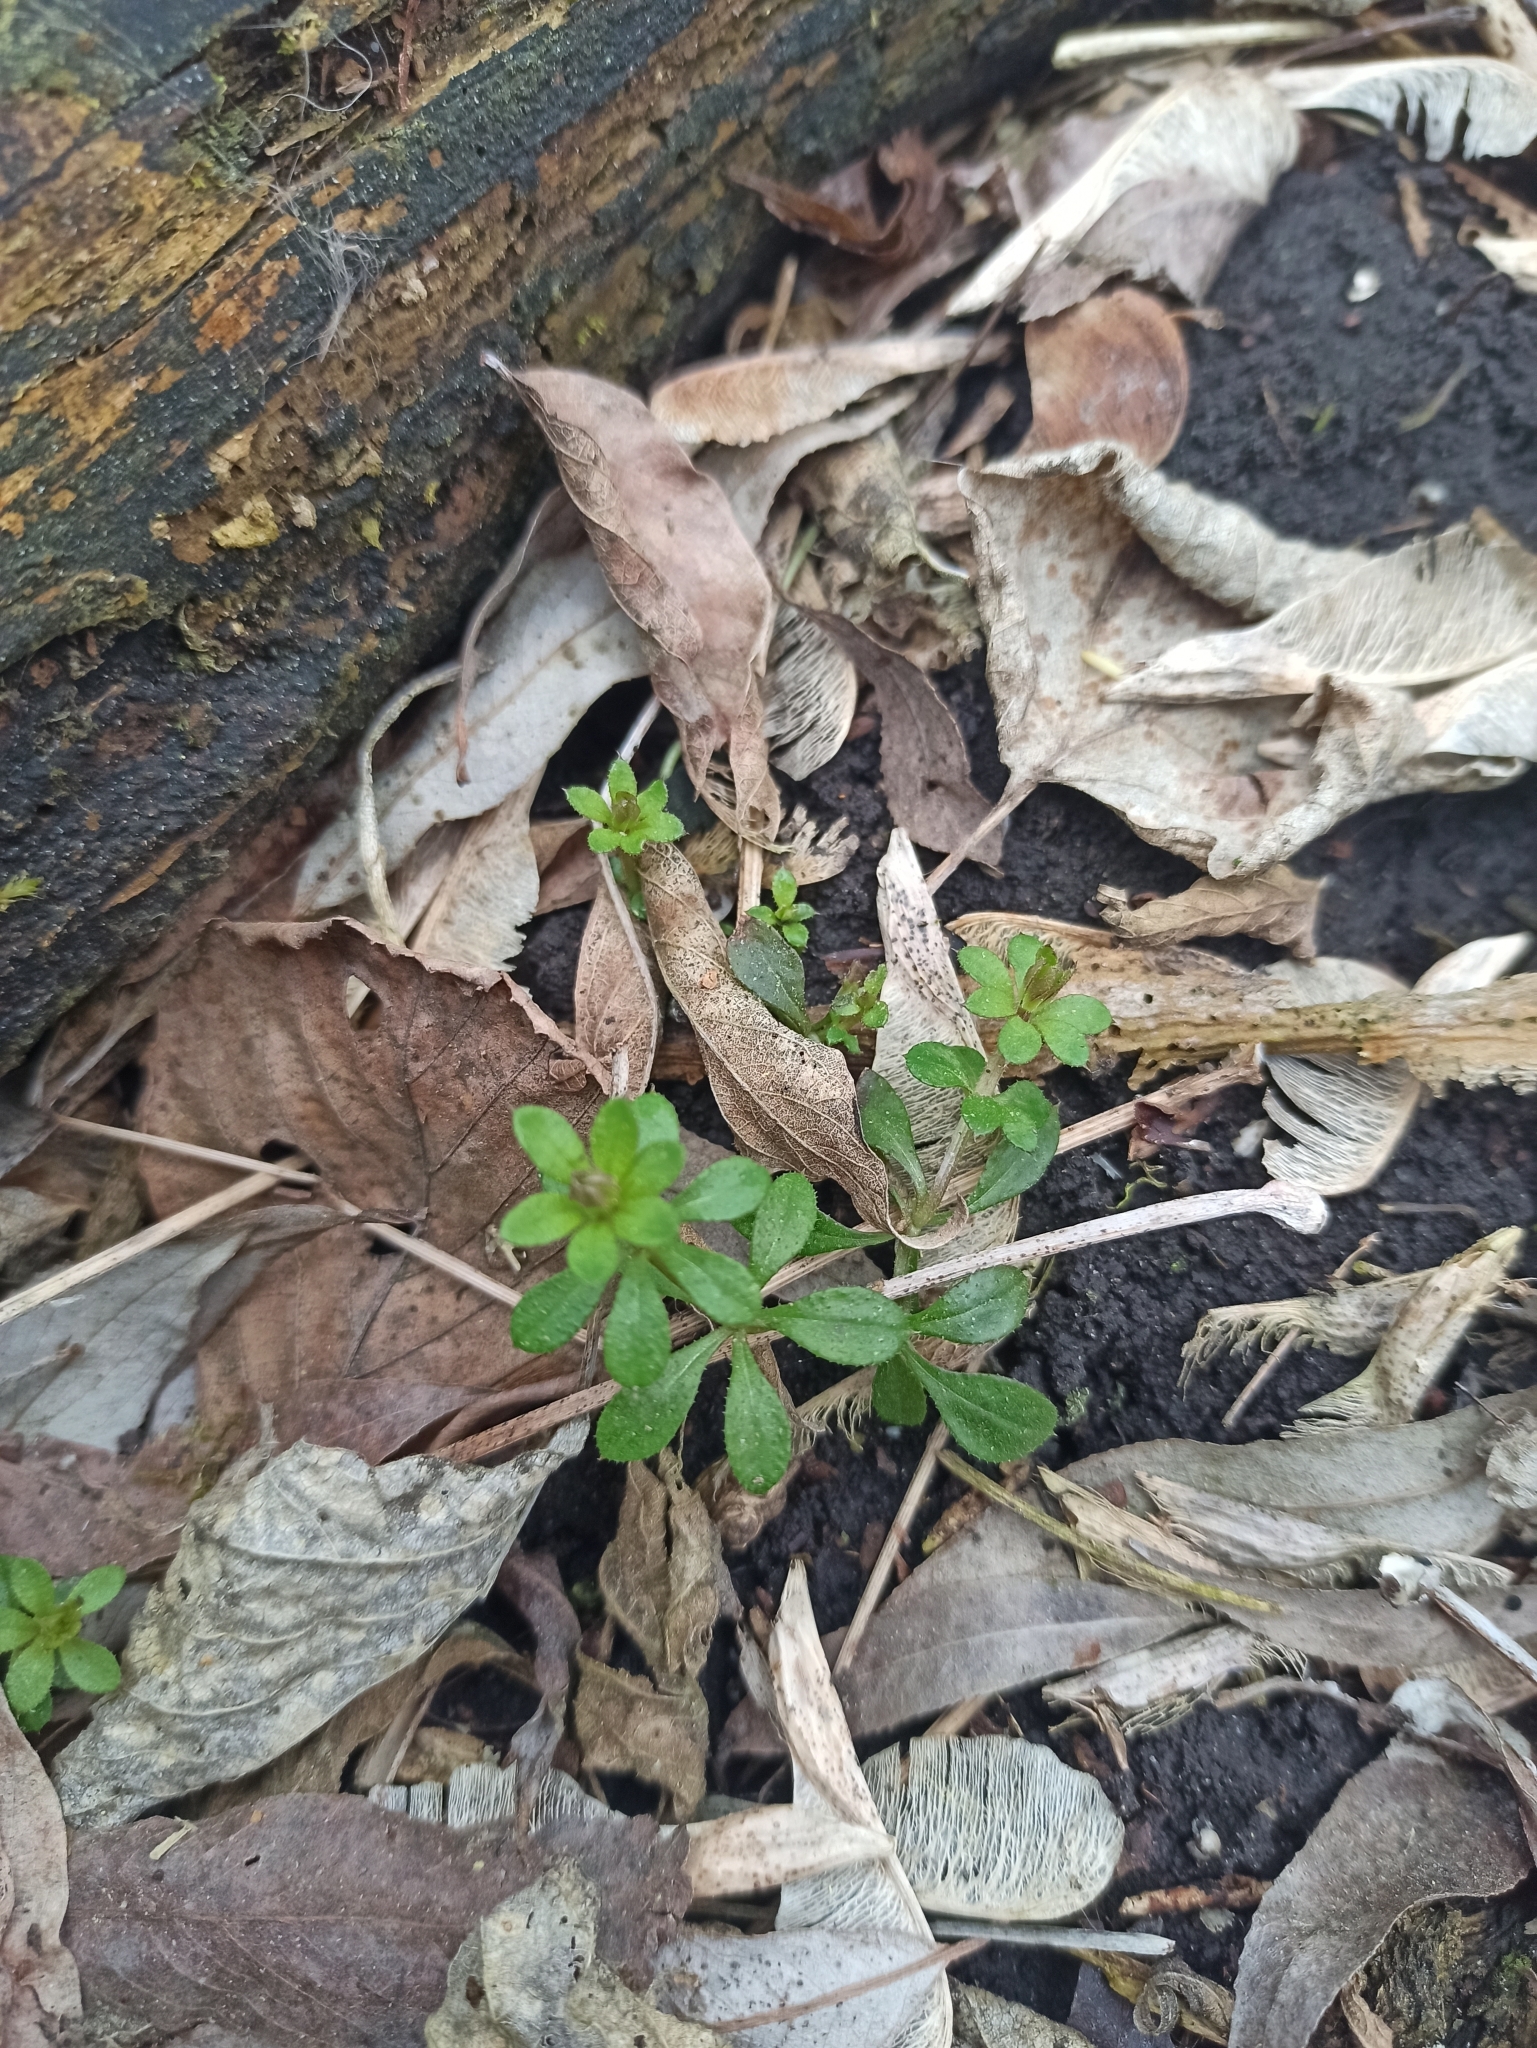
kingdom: Plantae
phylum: Tracheophyta
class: Magnoliopsida
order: Gentianales
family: Rubiaceae
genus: Galium
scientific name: Galium aparine
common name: Cleavers
